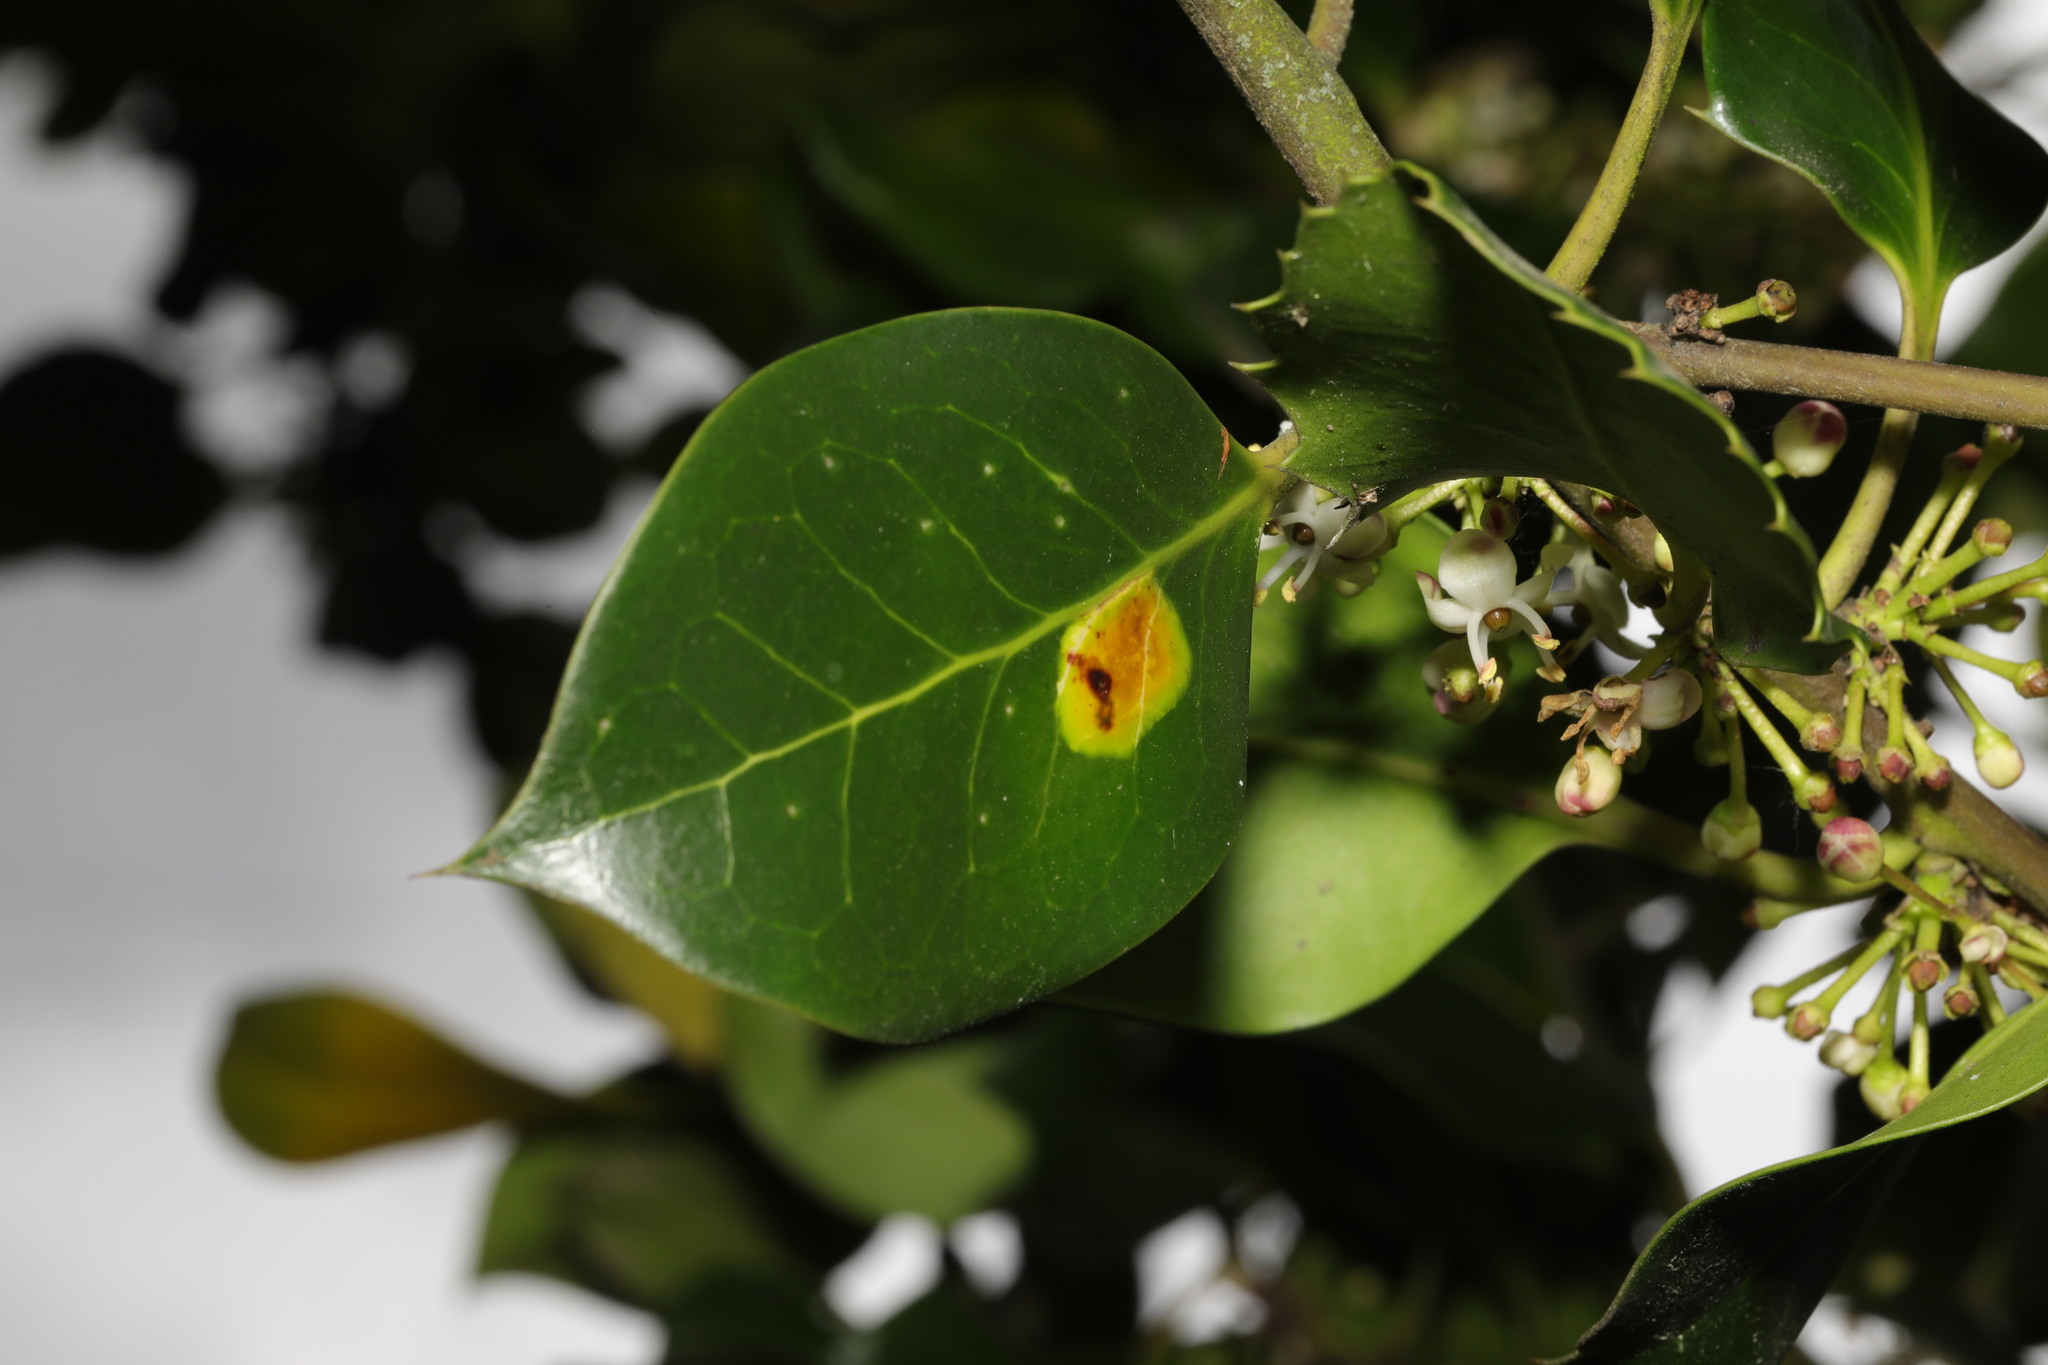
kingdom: Animalia
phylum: Arthropoda
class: Insecta
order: Diptera
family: Agromyzidae
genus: Phytomyza
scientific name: Phytomyza ilicis
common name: Holly leafminer
